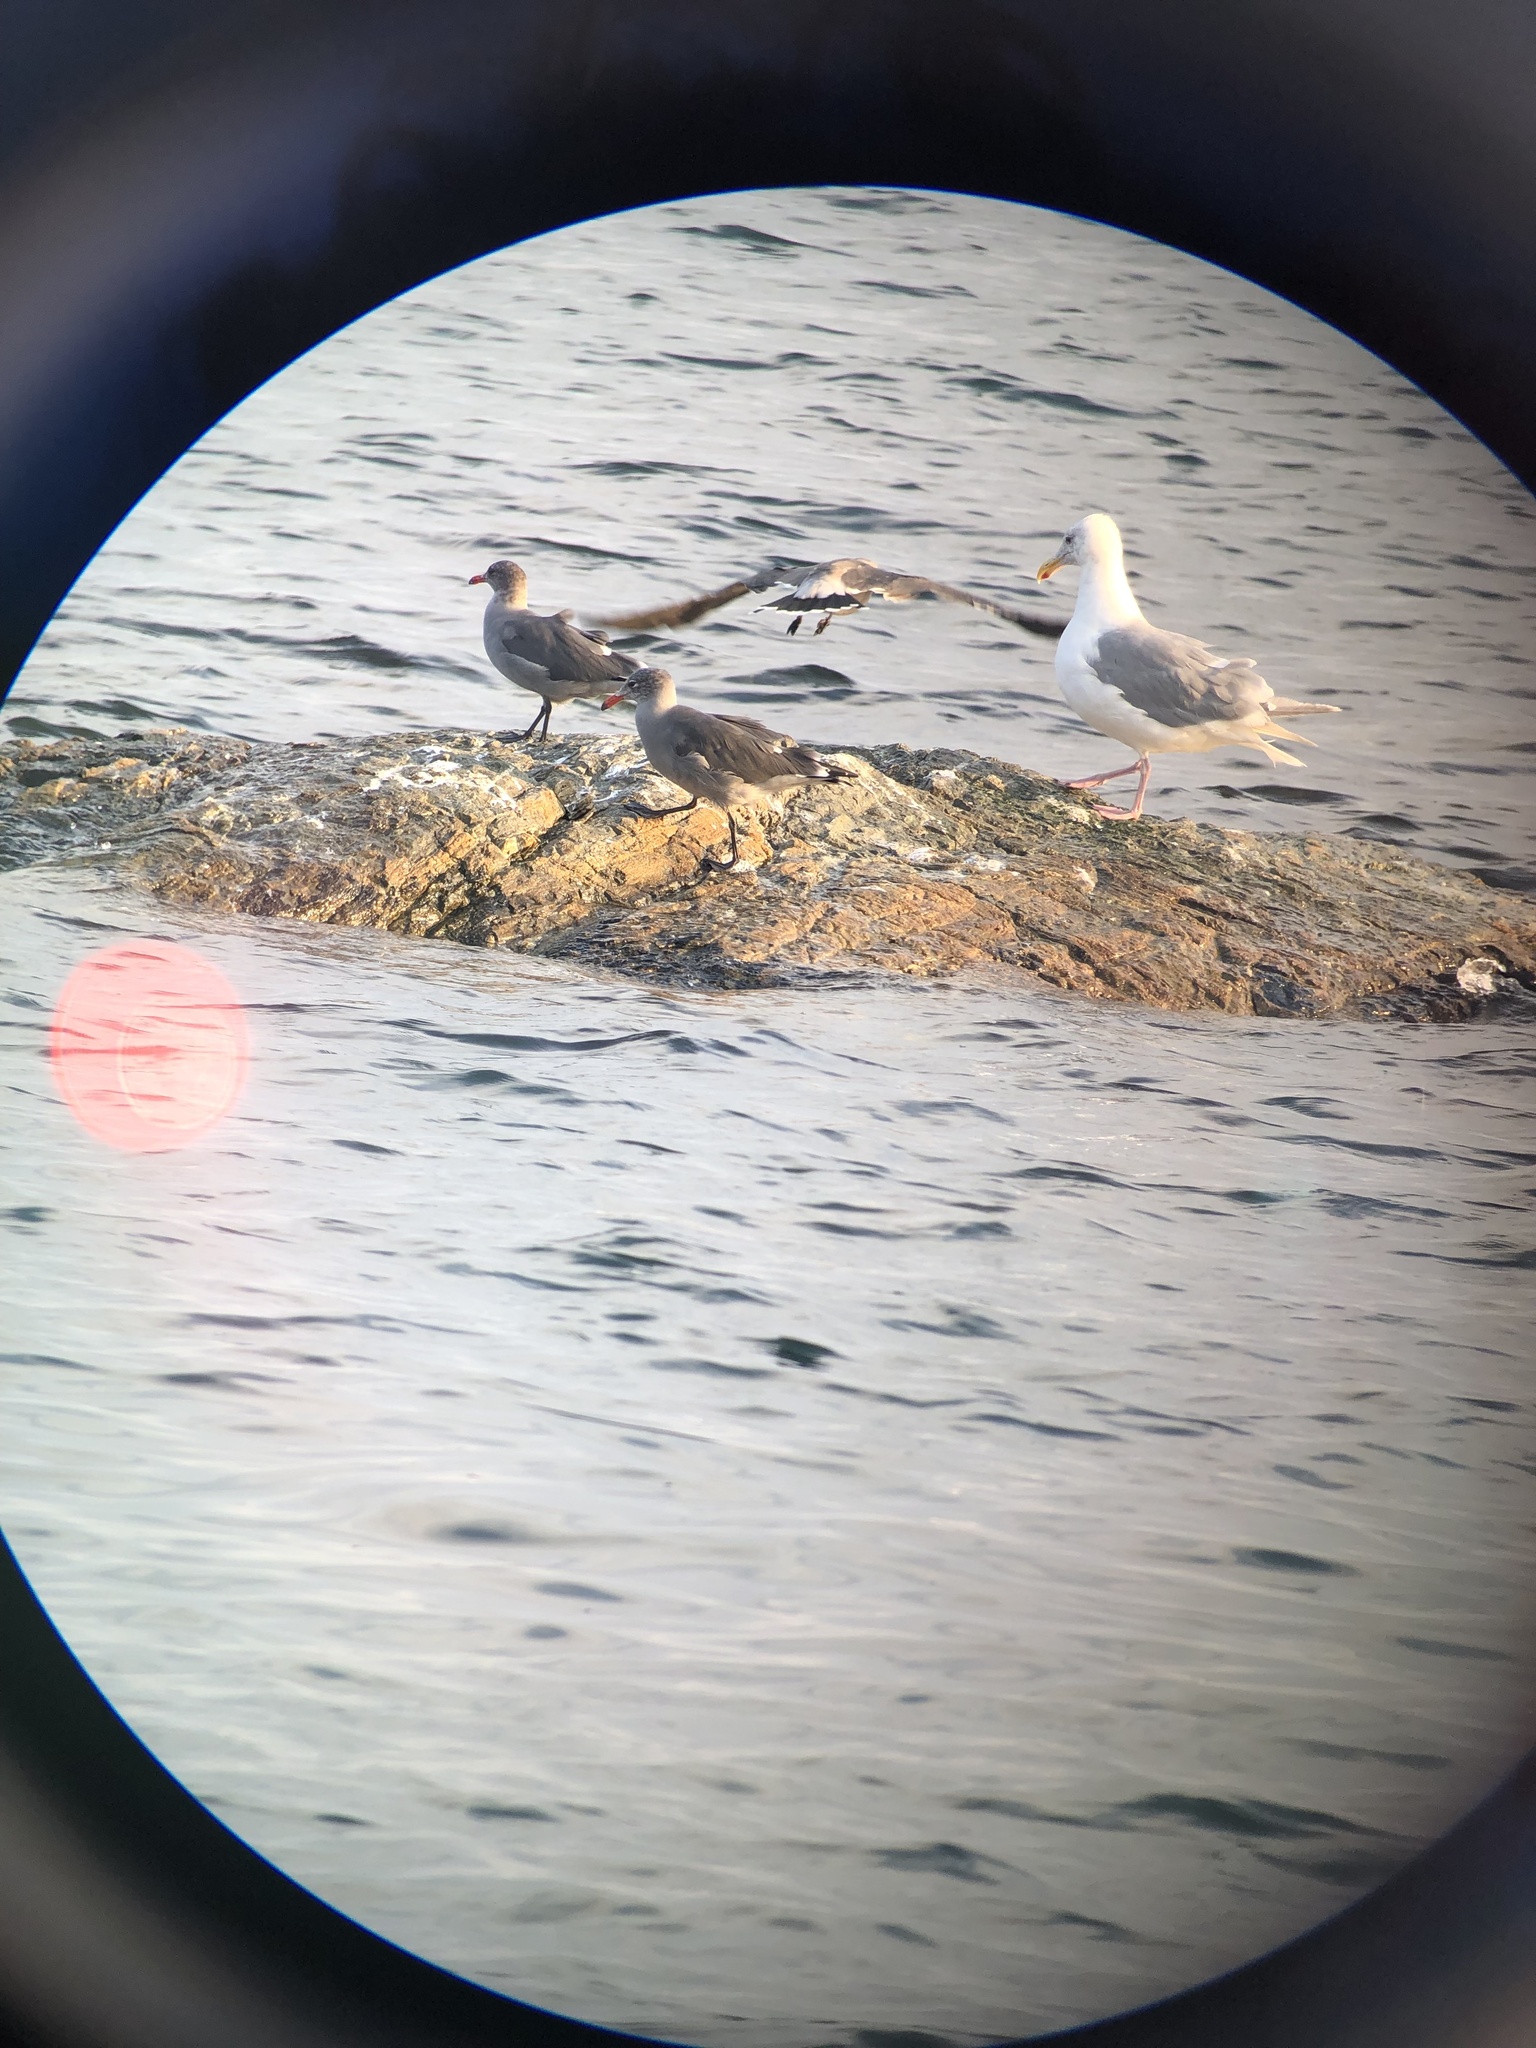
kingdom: Animalia
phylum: Chordata
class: Aves
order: Charadriiformes
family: Laridae
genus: Larus
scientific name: Larus heermanni
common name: Heermann's gull
